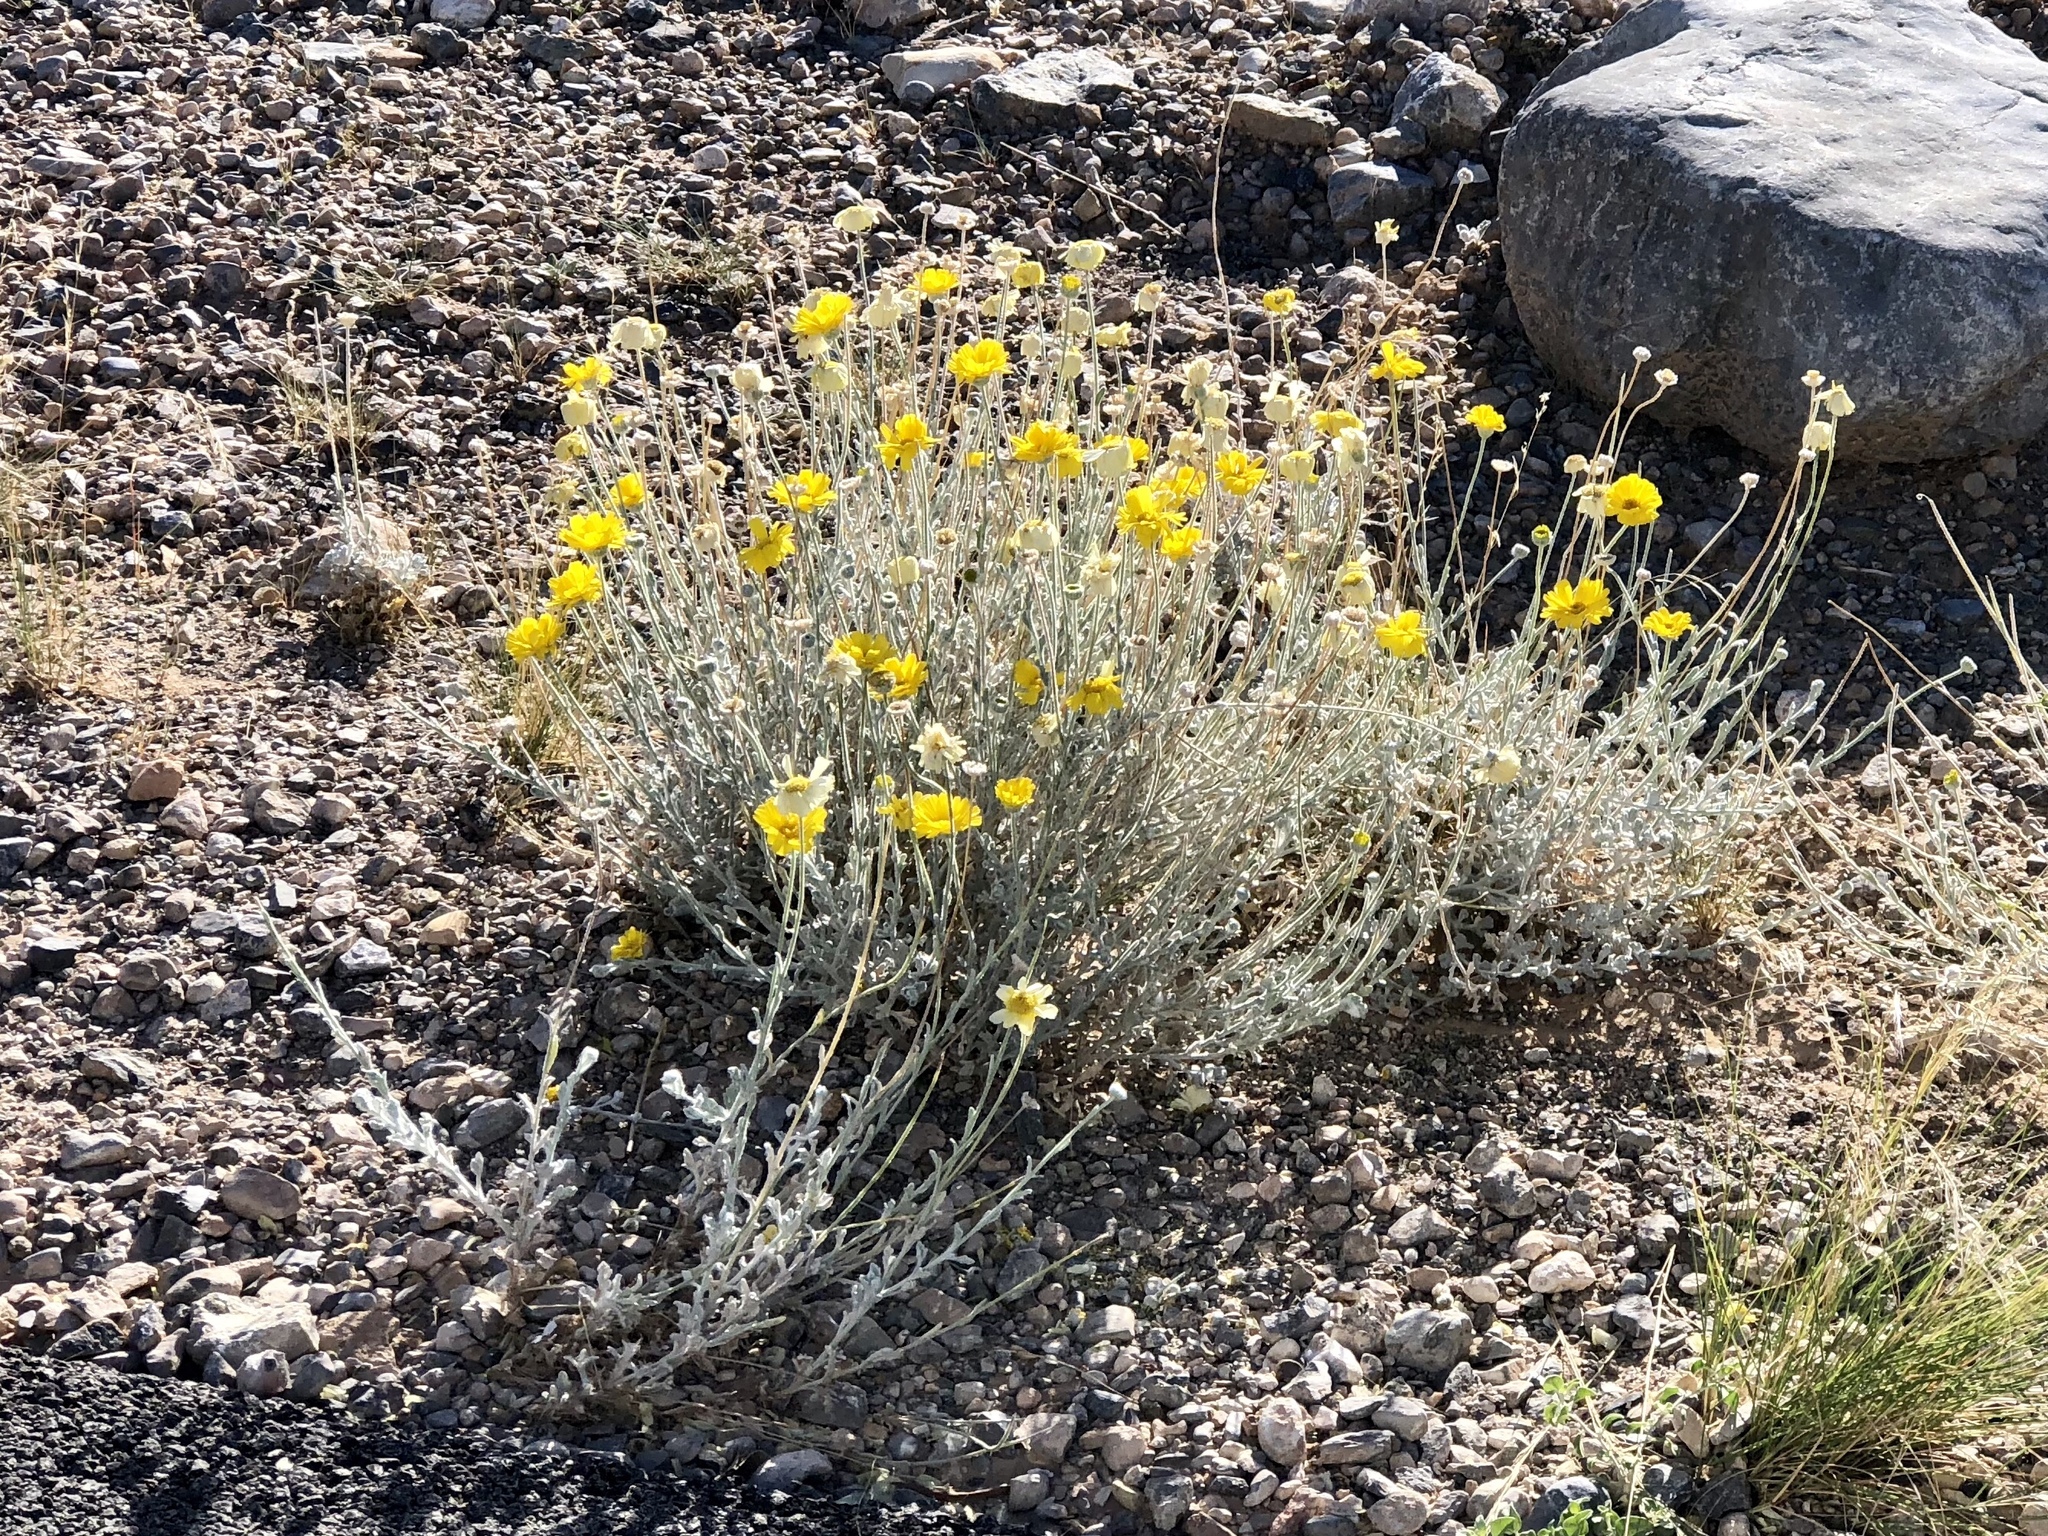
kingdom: Plantae
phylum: Tracheophyta
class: Magnoliopsida
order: Asterales
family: Asteraceae
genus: Baileya
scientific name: Baileya multiradiata
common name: Desert-marigold
